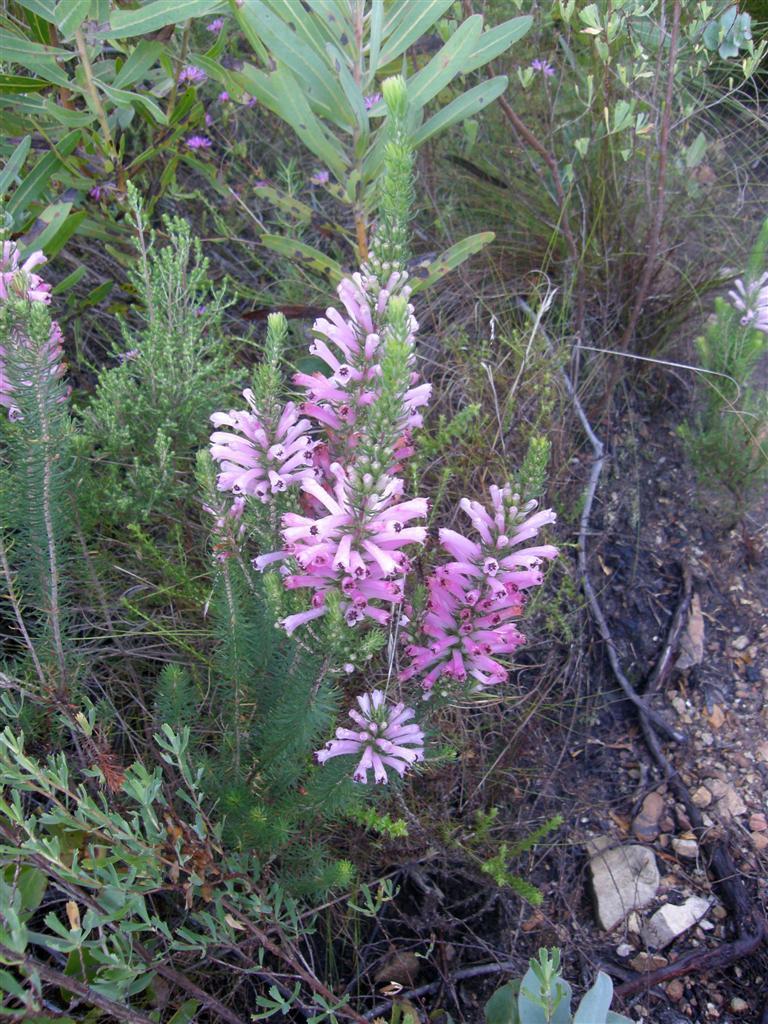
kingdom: Plantae
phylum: Tracheophyta
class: Magnoliopsida
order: Ericales
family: Ericaceae
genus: Erica
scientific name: Erica pinea
